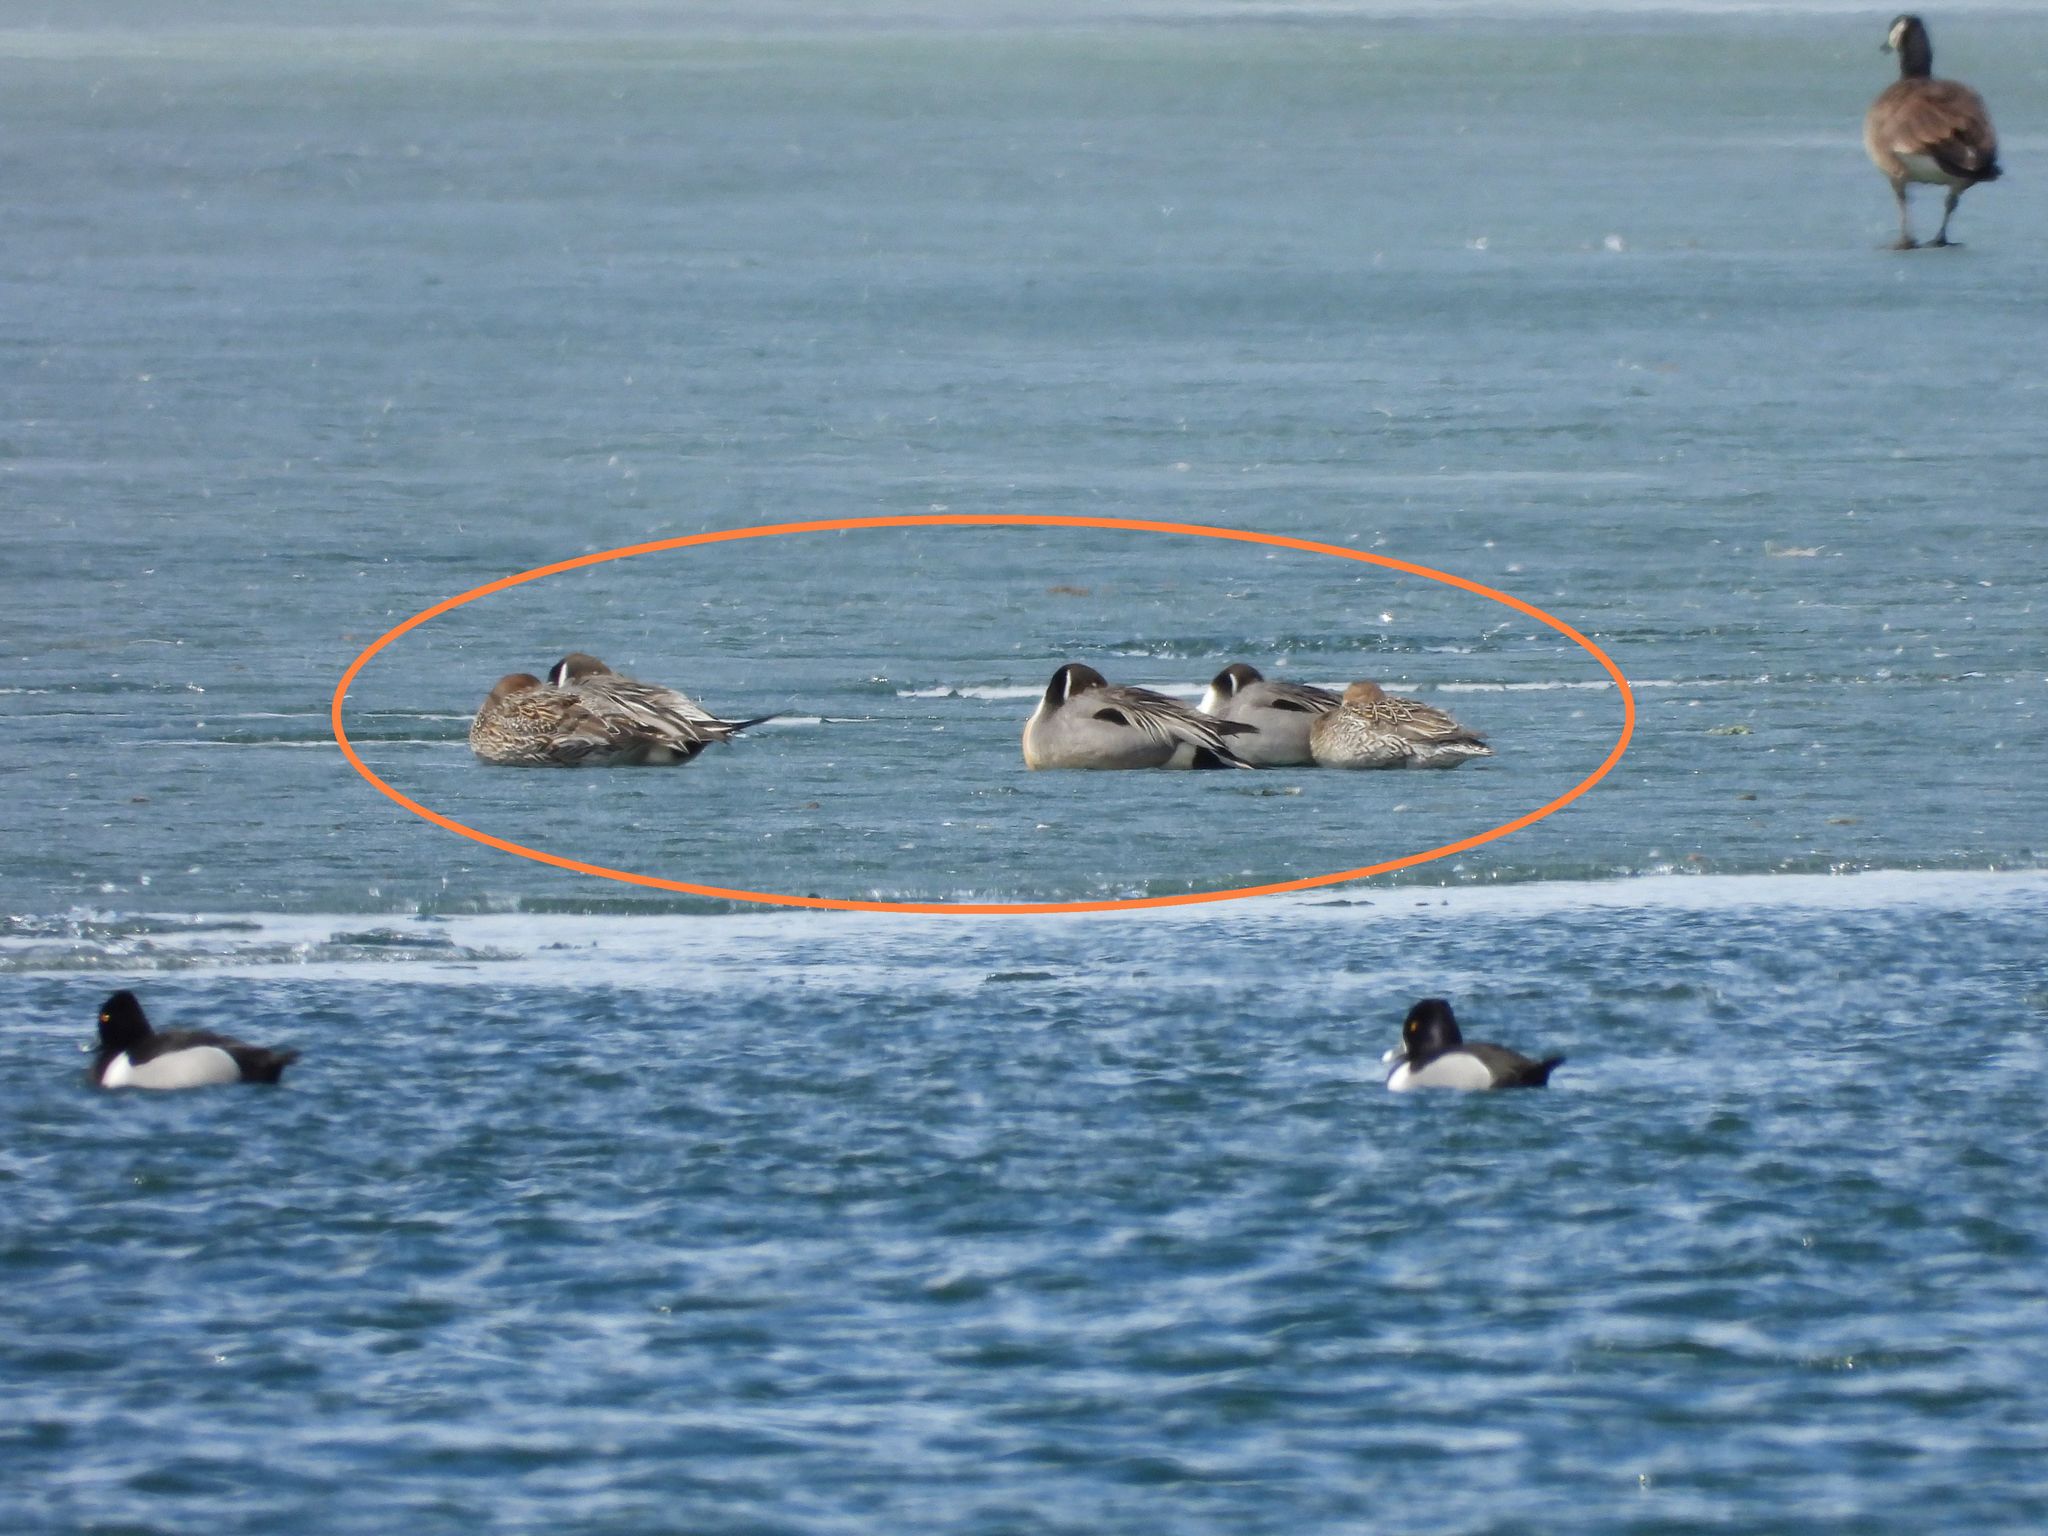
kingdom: Animalia
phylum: Chordata
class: Aves
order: Anseriformes
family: Anatidae
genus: Anas
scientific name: Anas acuta
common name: Northern pintail
